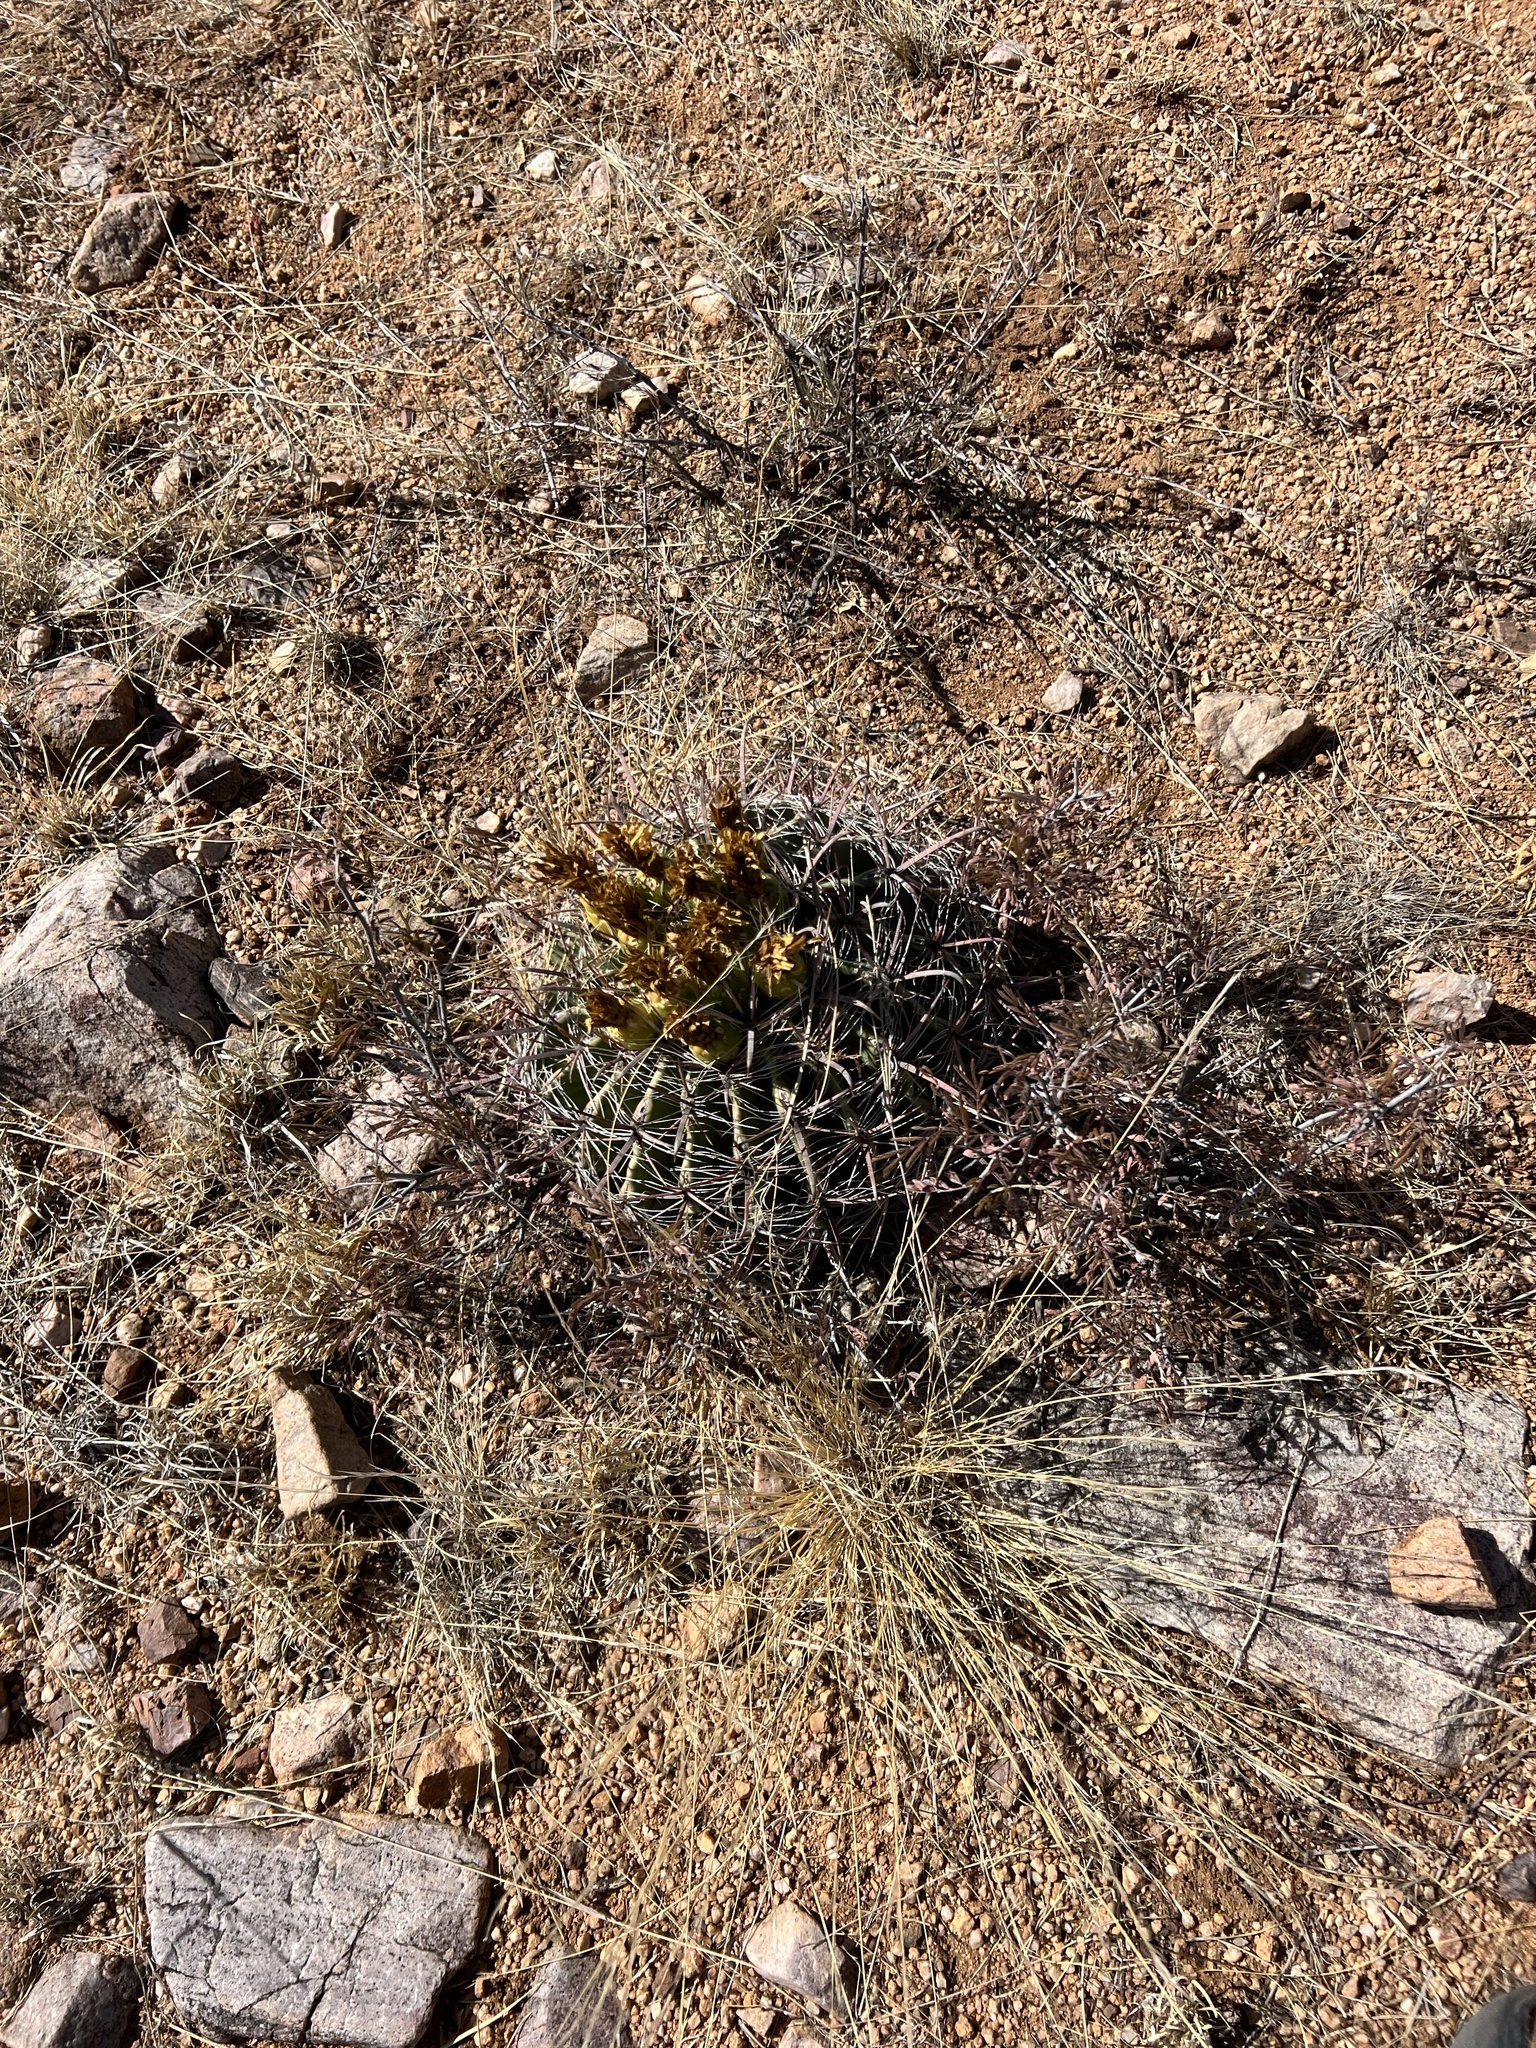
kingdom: Plantae
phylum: Tracheophyta
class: Magnoliopsida
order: Caryophyllales
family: Cactaceae
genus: Ferocactus
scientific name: Ferocactus wislizeni
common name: Candy barrel cactus
